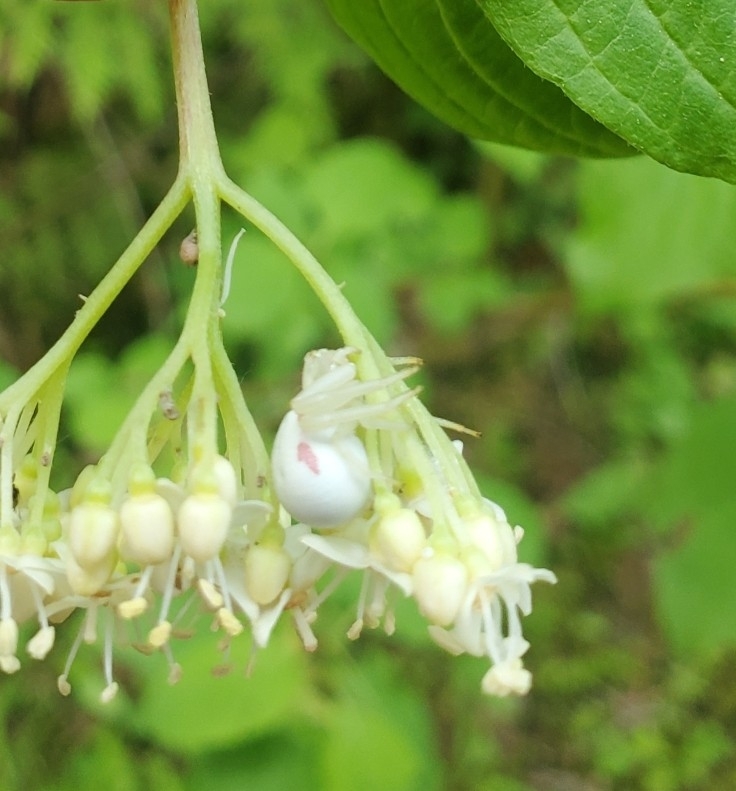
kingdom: Animalia
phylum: Arthropoda
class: Arachnida
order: Araneae
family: Thomisidae
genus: Misumena
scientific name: Misumena vatia
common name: Goldenrod crab spider
